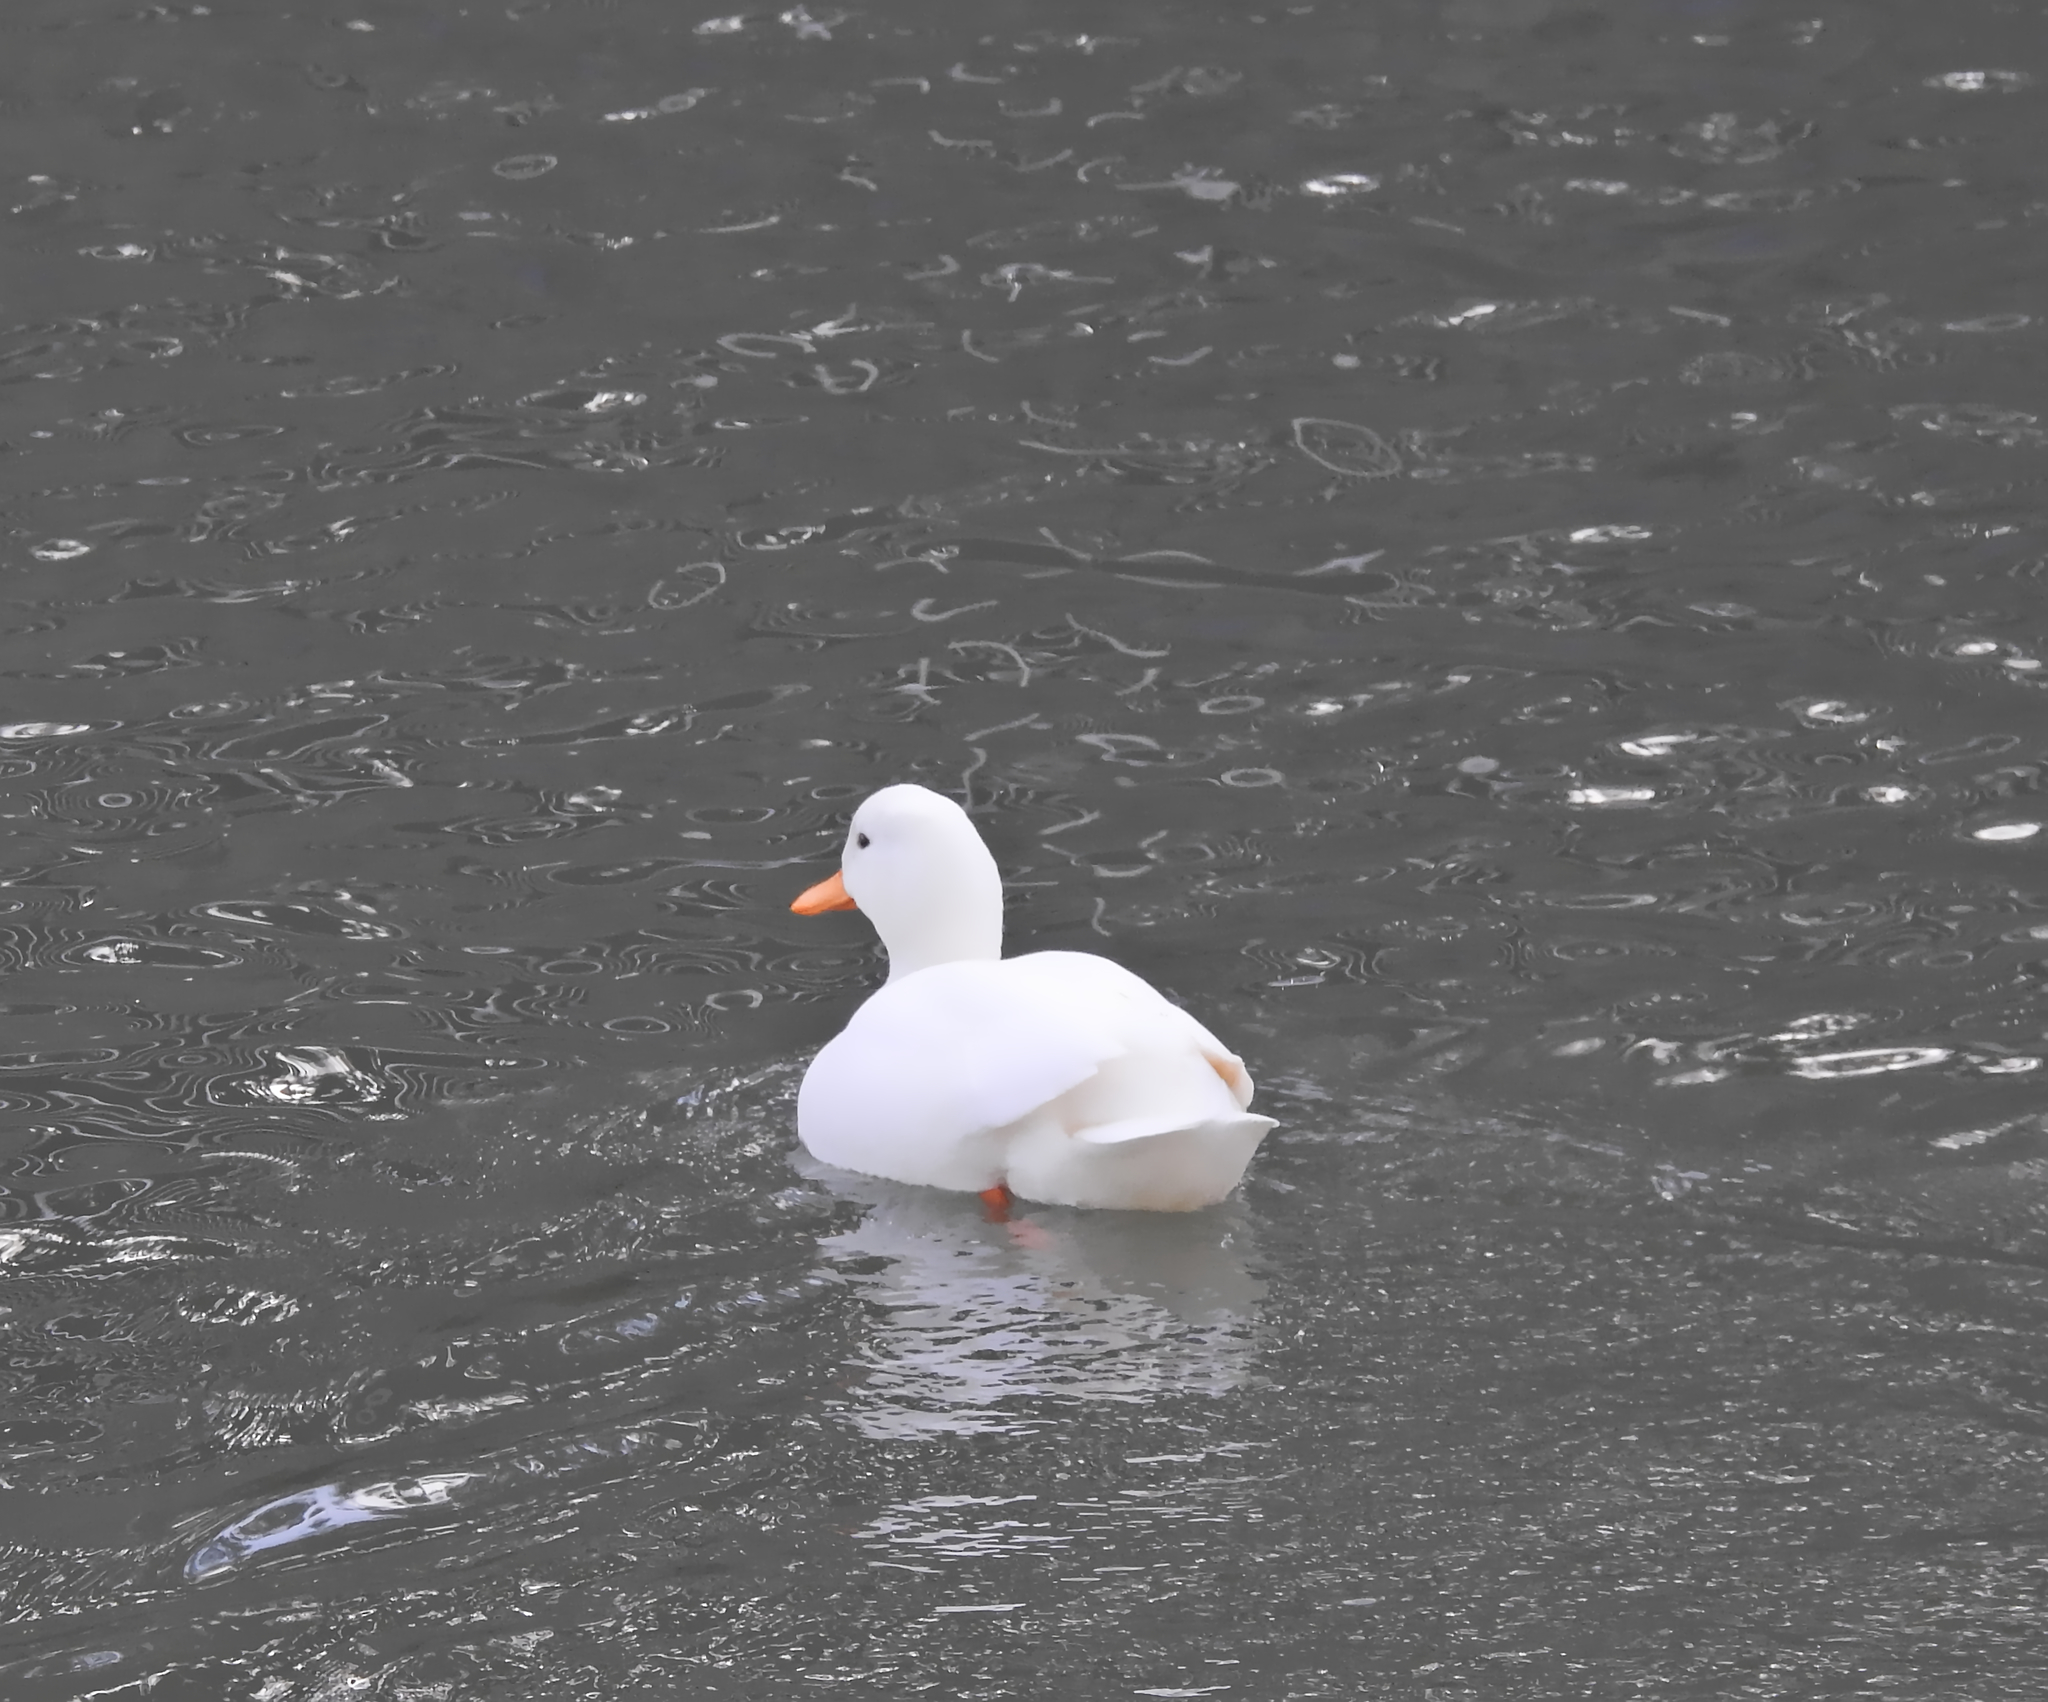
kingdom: Animalia
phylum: Chordata
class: Aves
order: Anseriformes
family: Anatidae
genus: Anas
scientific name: Anas platyrhynchos
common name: Mallard
